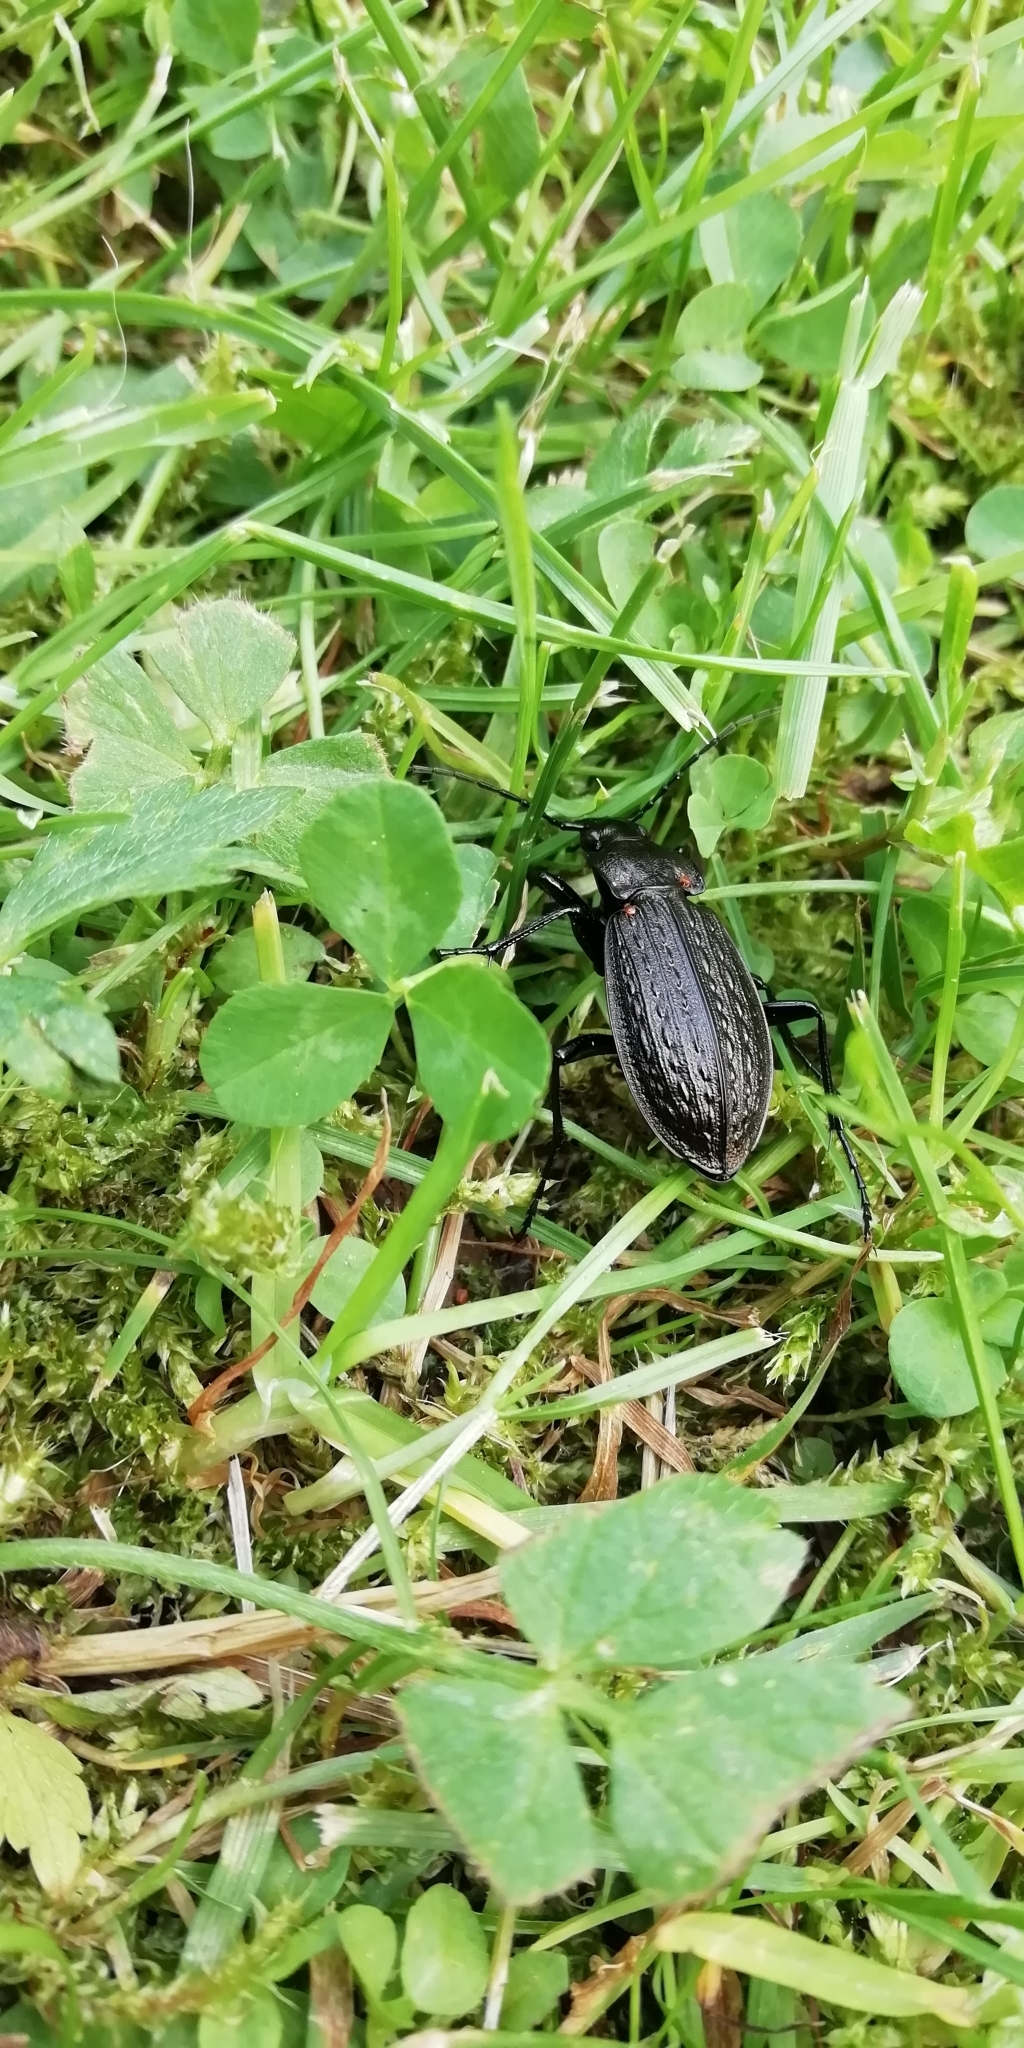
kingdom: Animalia
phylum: Arthropoda
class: Insecta
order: Coleoptera
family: Carabidae
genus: Carabus
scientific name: Carabus granulatus
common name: Granulate ground beetle
